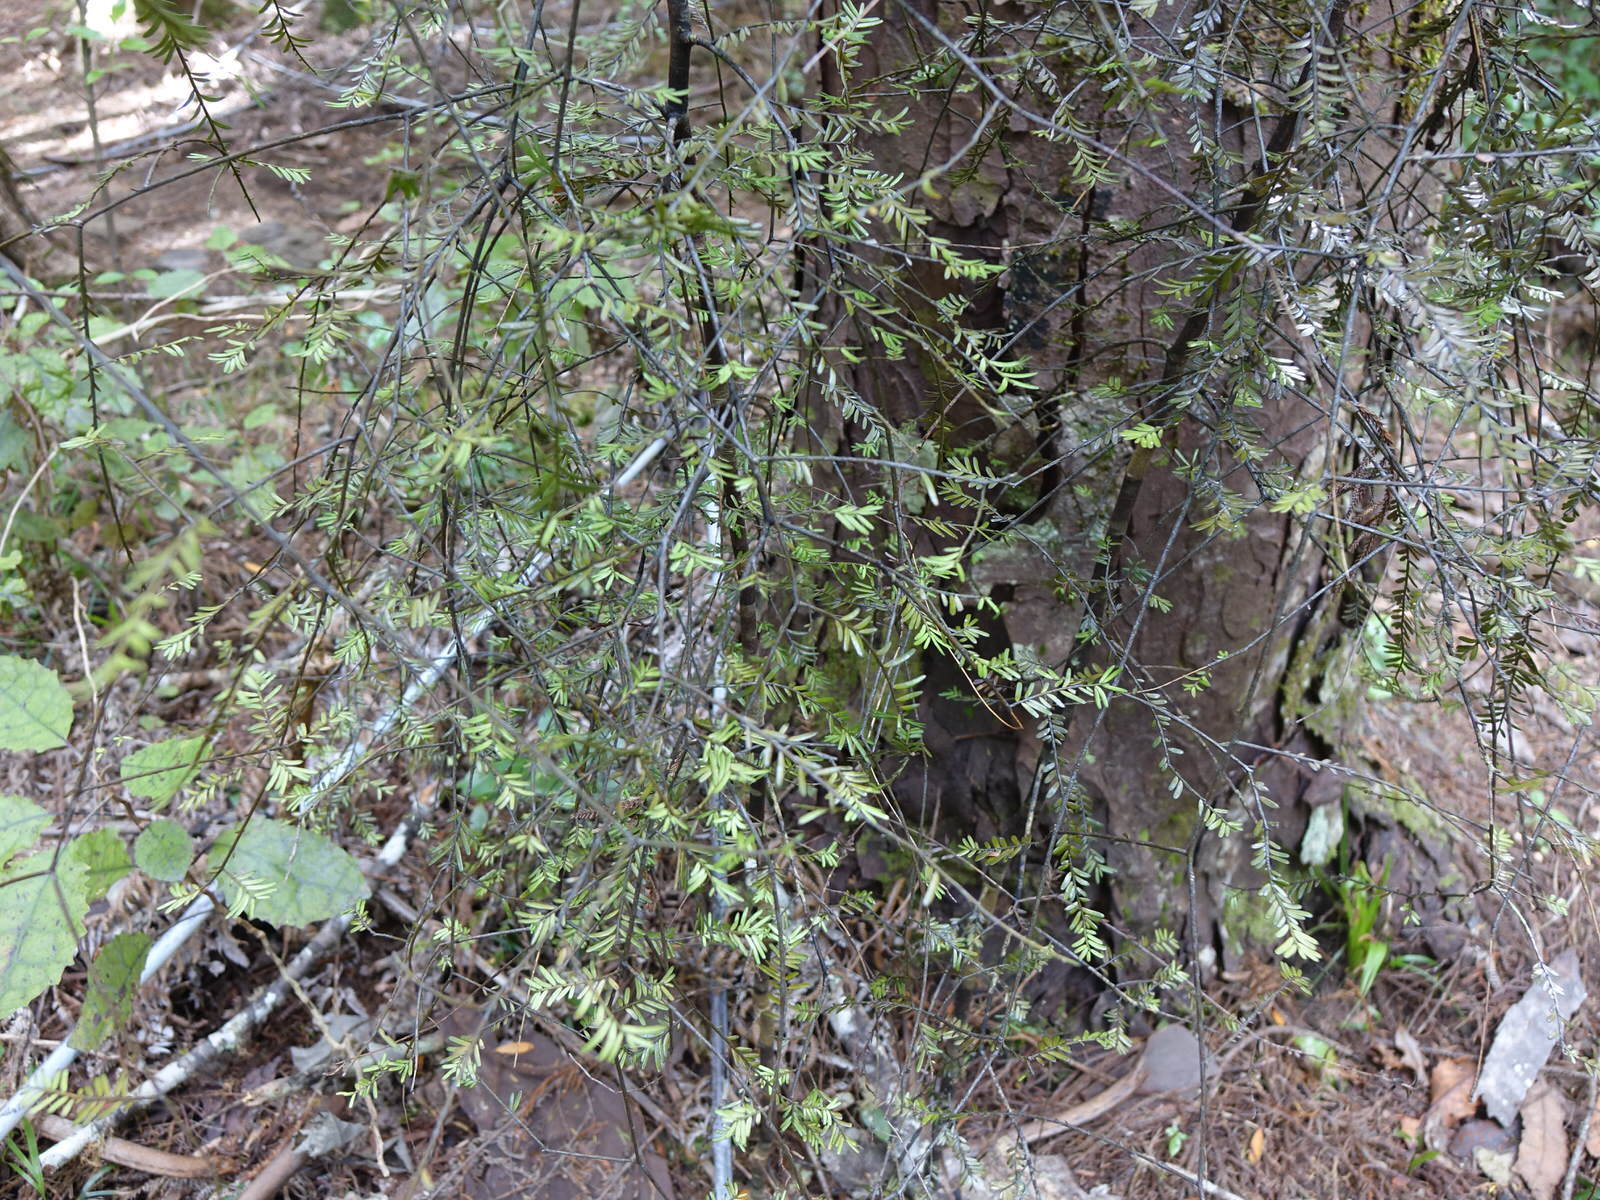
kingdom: Plantae
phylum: Tracheophyta
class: Pinopsida
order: Pinales
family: Podocarpaceae
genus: Prumnopitys
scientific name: Prumnopitys taxifolia
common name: Matai
